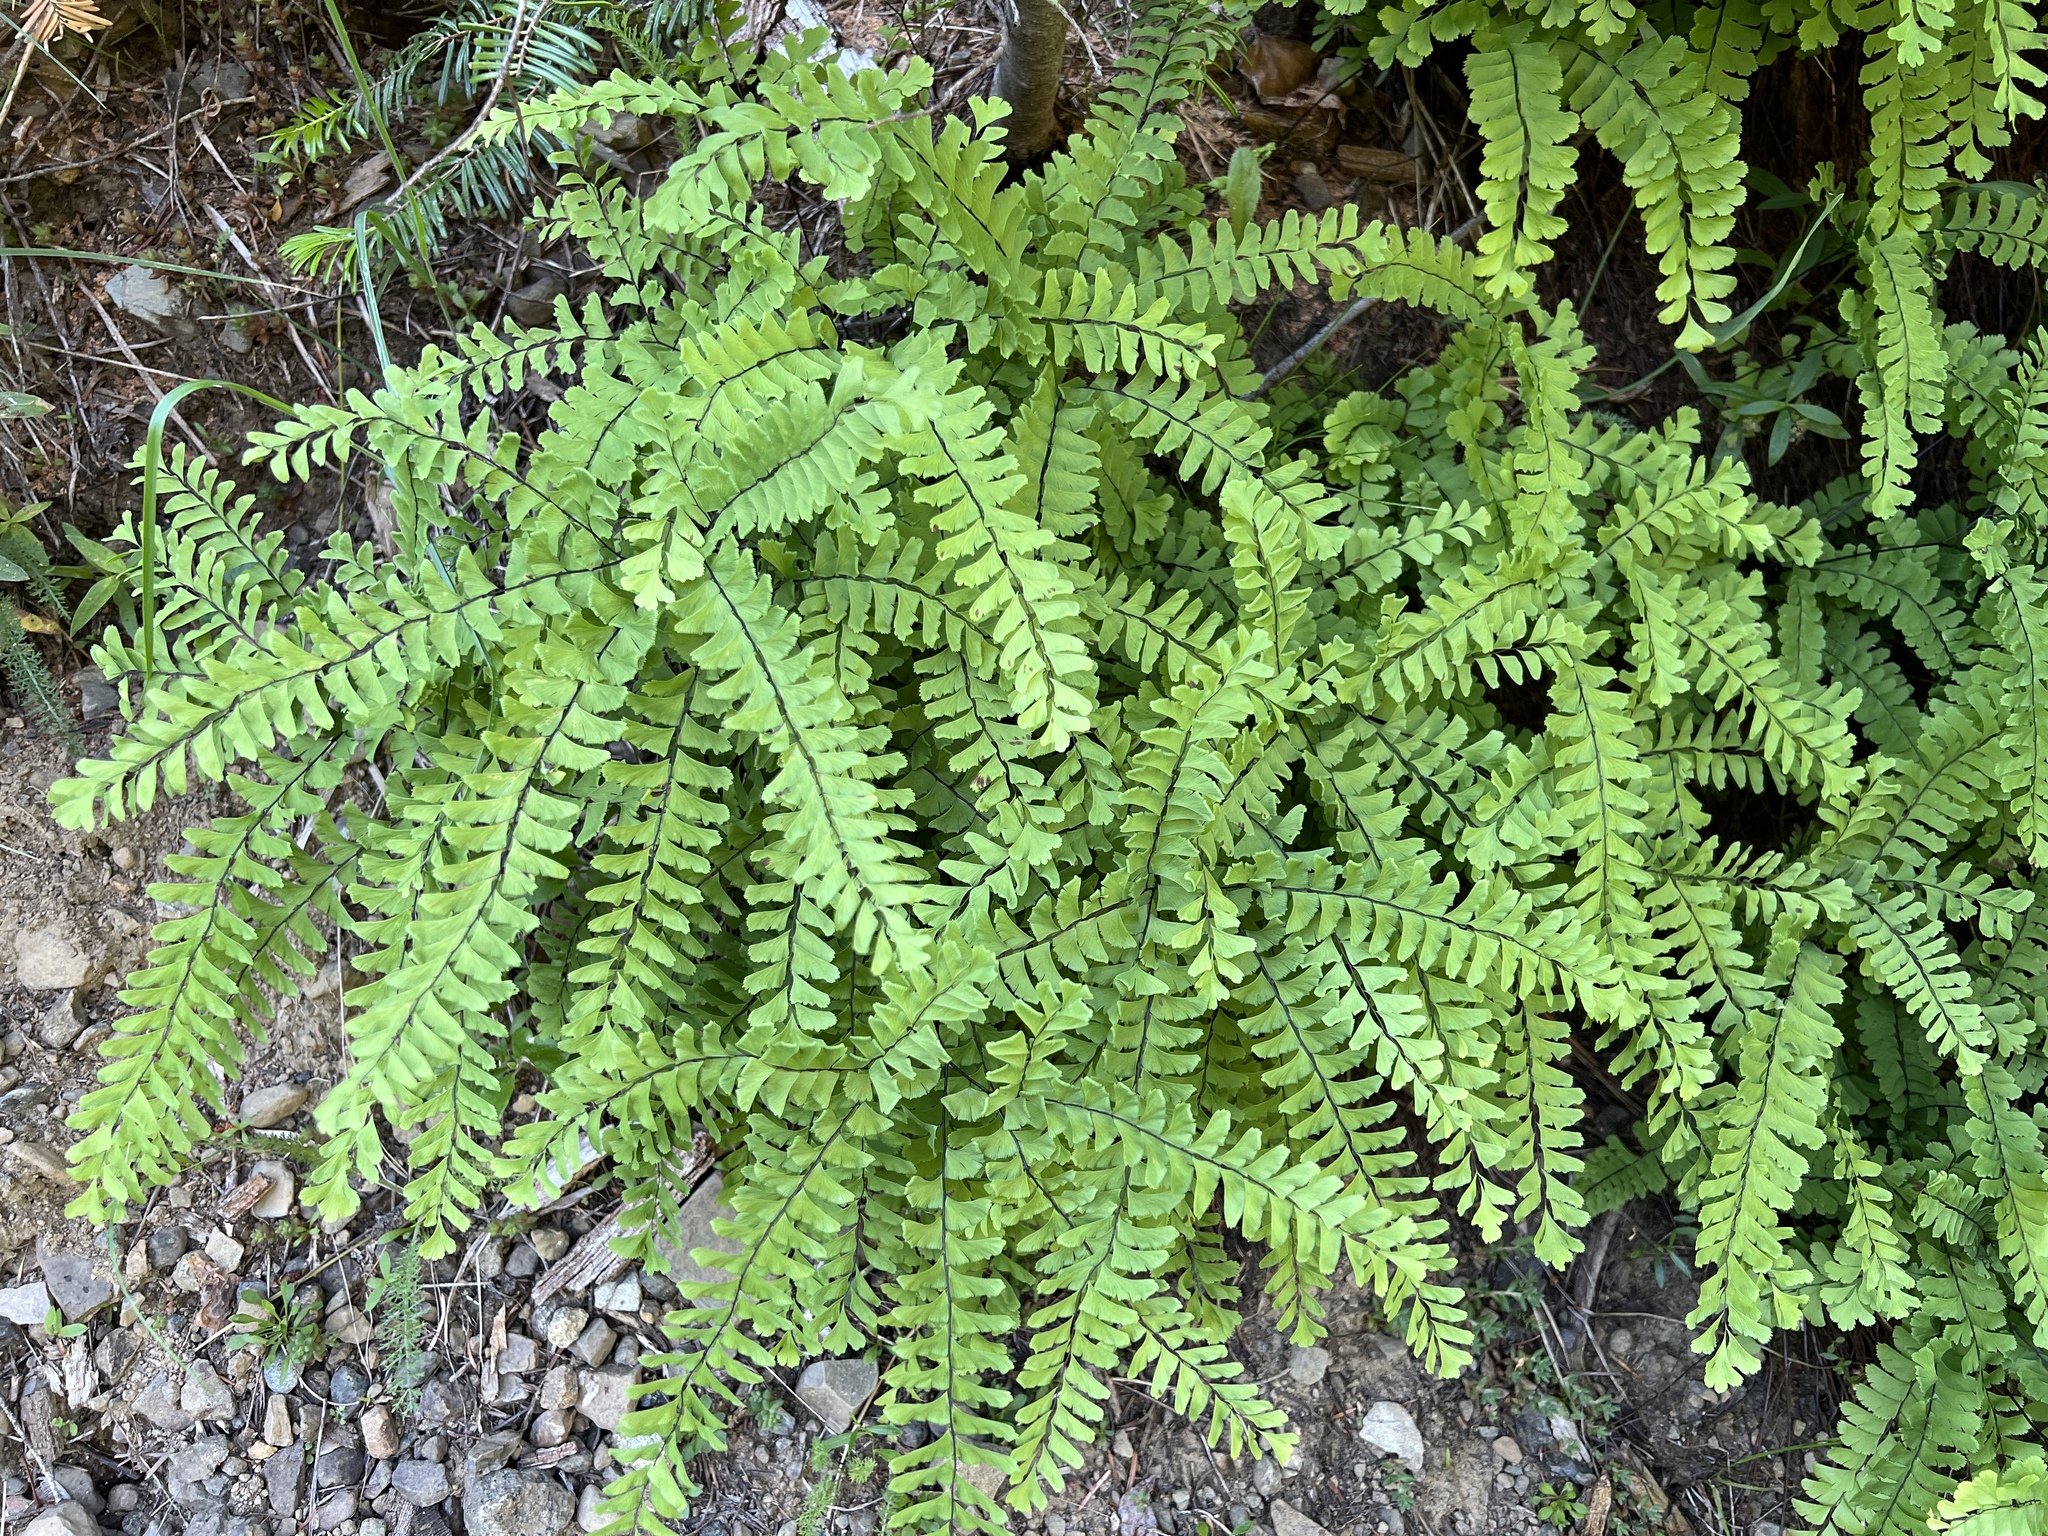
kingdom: Plantae
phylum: Tracheophyta
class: Polypodiopsida
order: Polypodiales
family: Pteridaceae
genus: Adiantum
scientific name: Adiantum aleuticum
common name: Aleutian maidenhair fern
